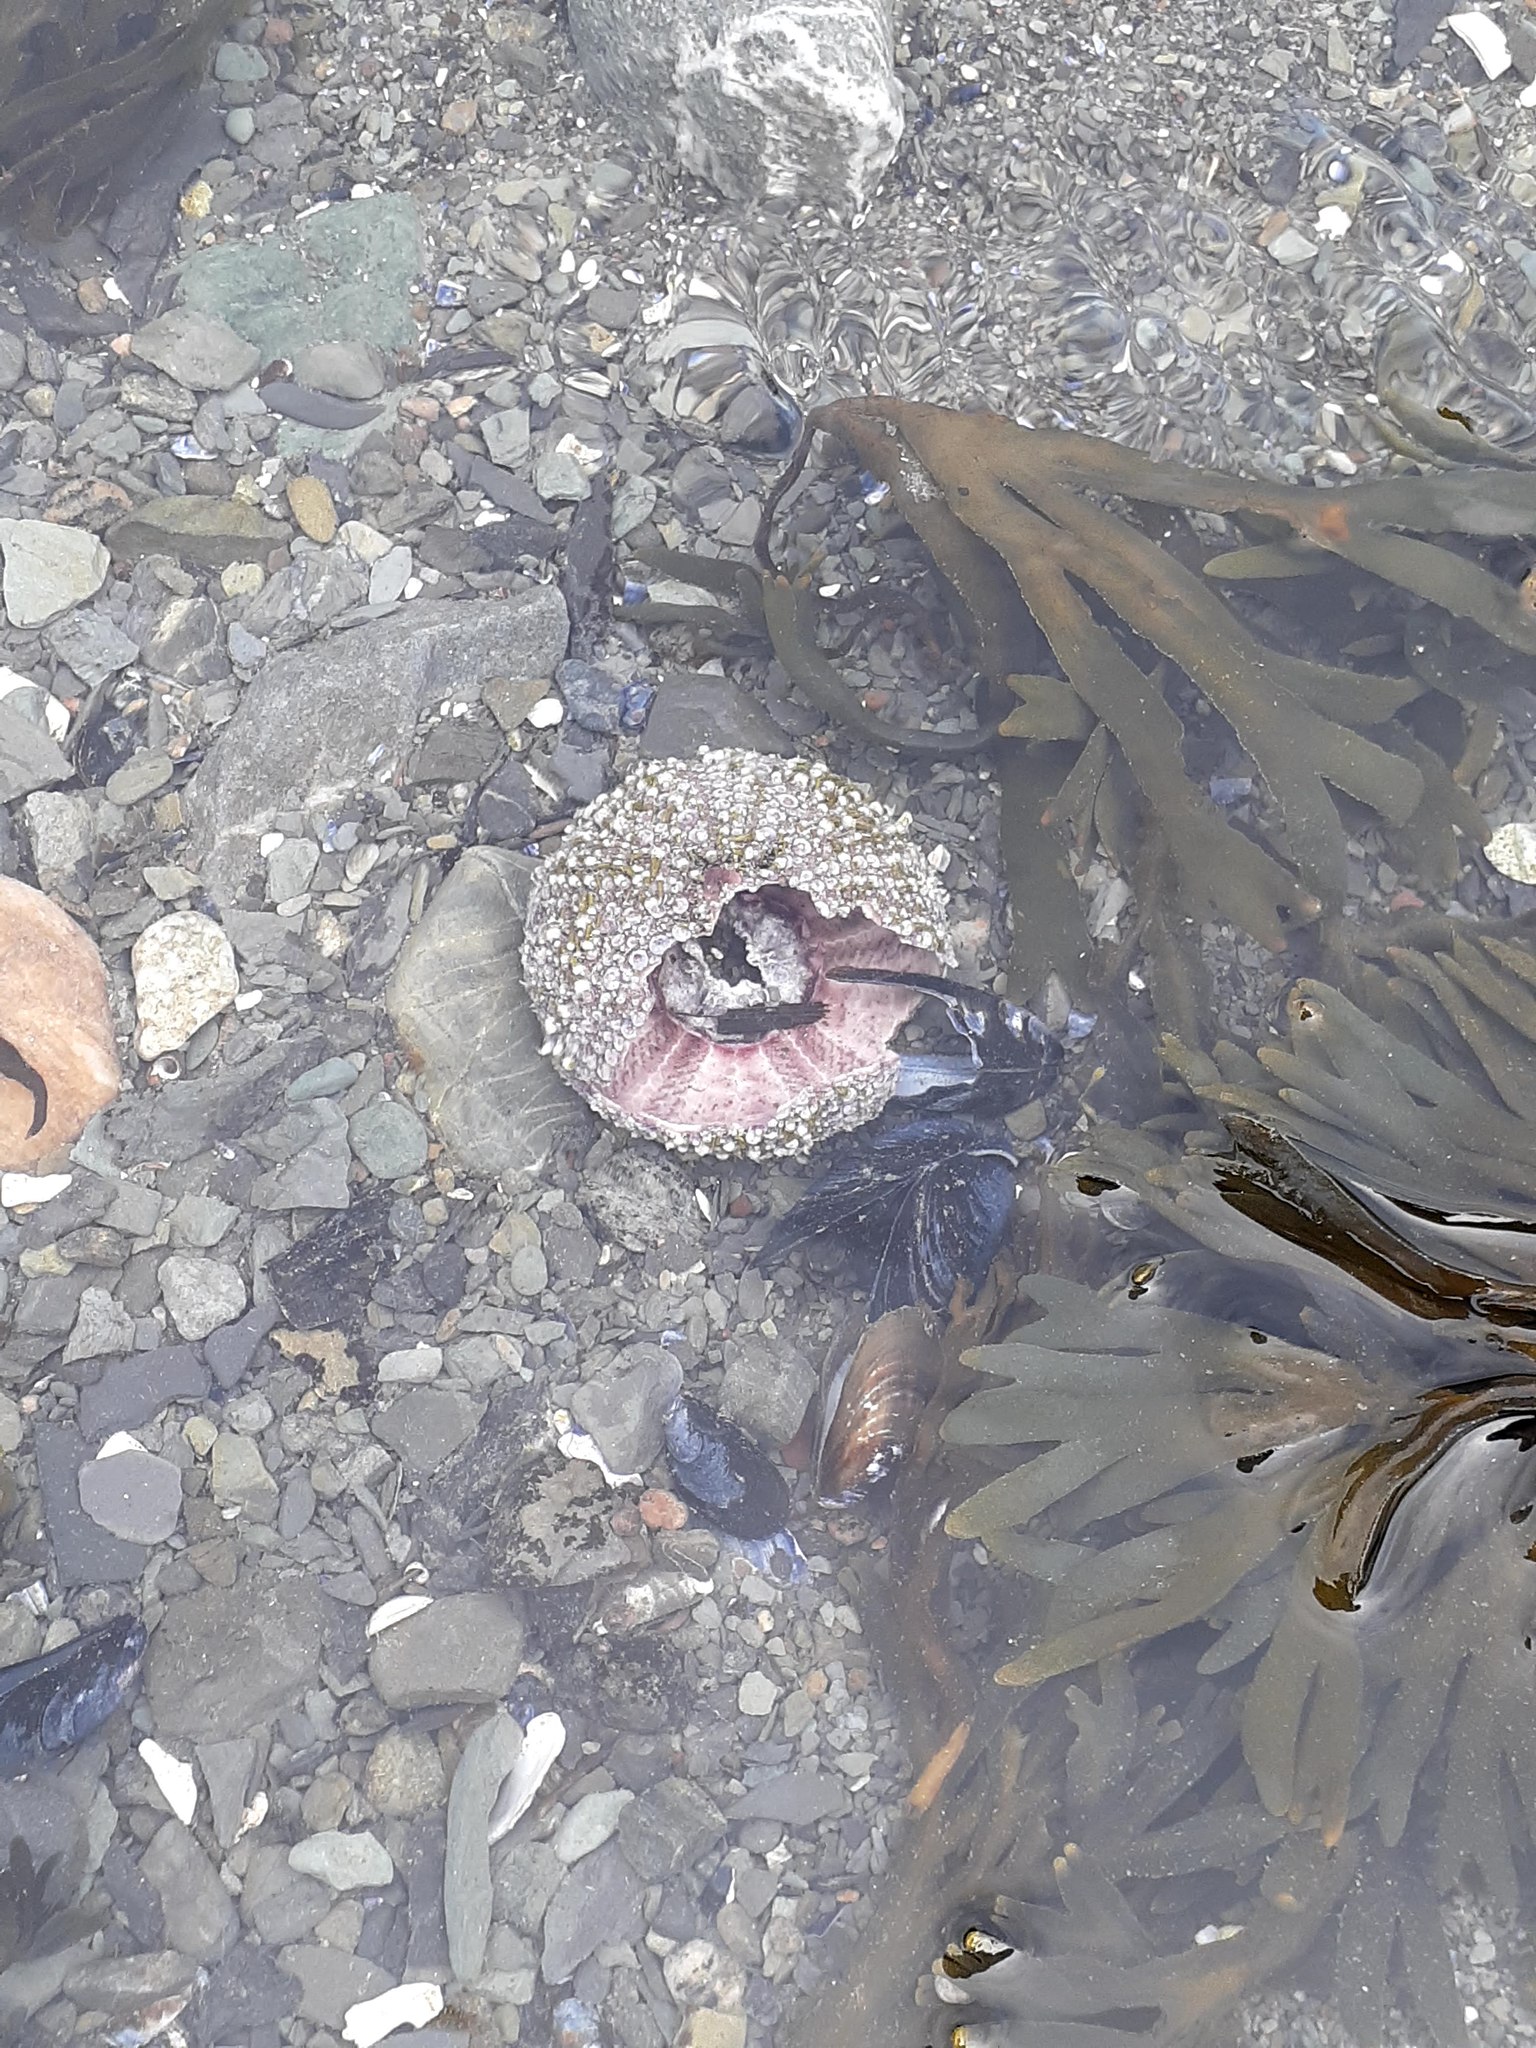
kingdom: Animalia
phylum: Echinodermata
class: Echinoidea
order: Camarodonta
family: Strongylocentrotidae
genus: Strongylocentrotus
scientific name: Strongylocentrotus droebachiensis
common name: Northern sea urchin
